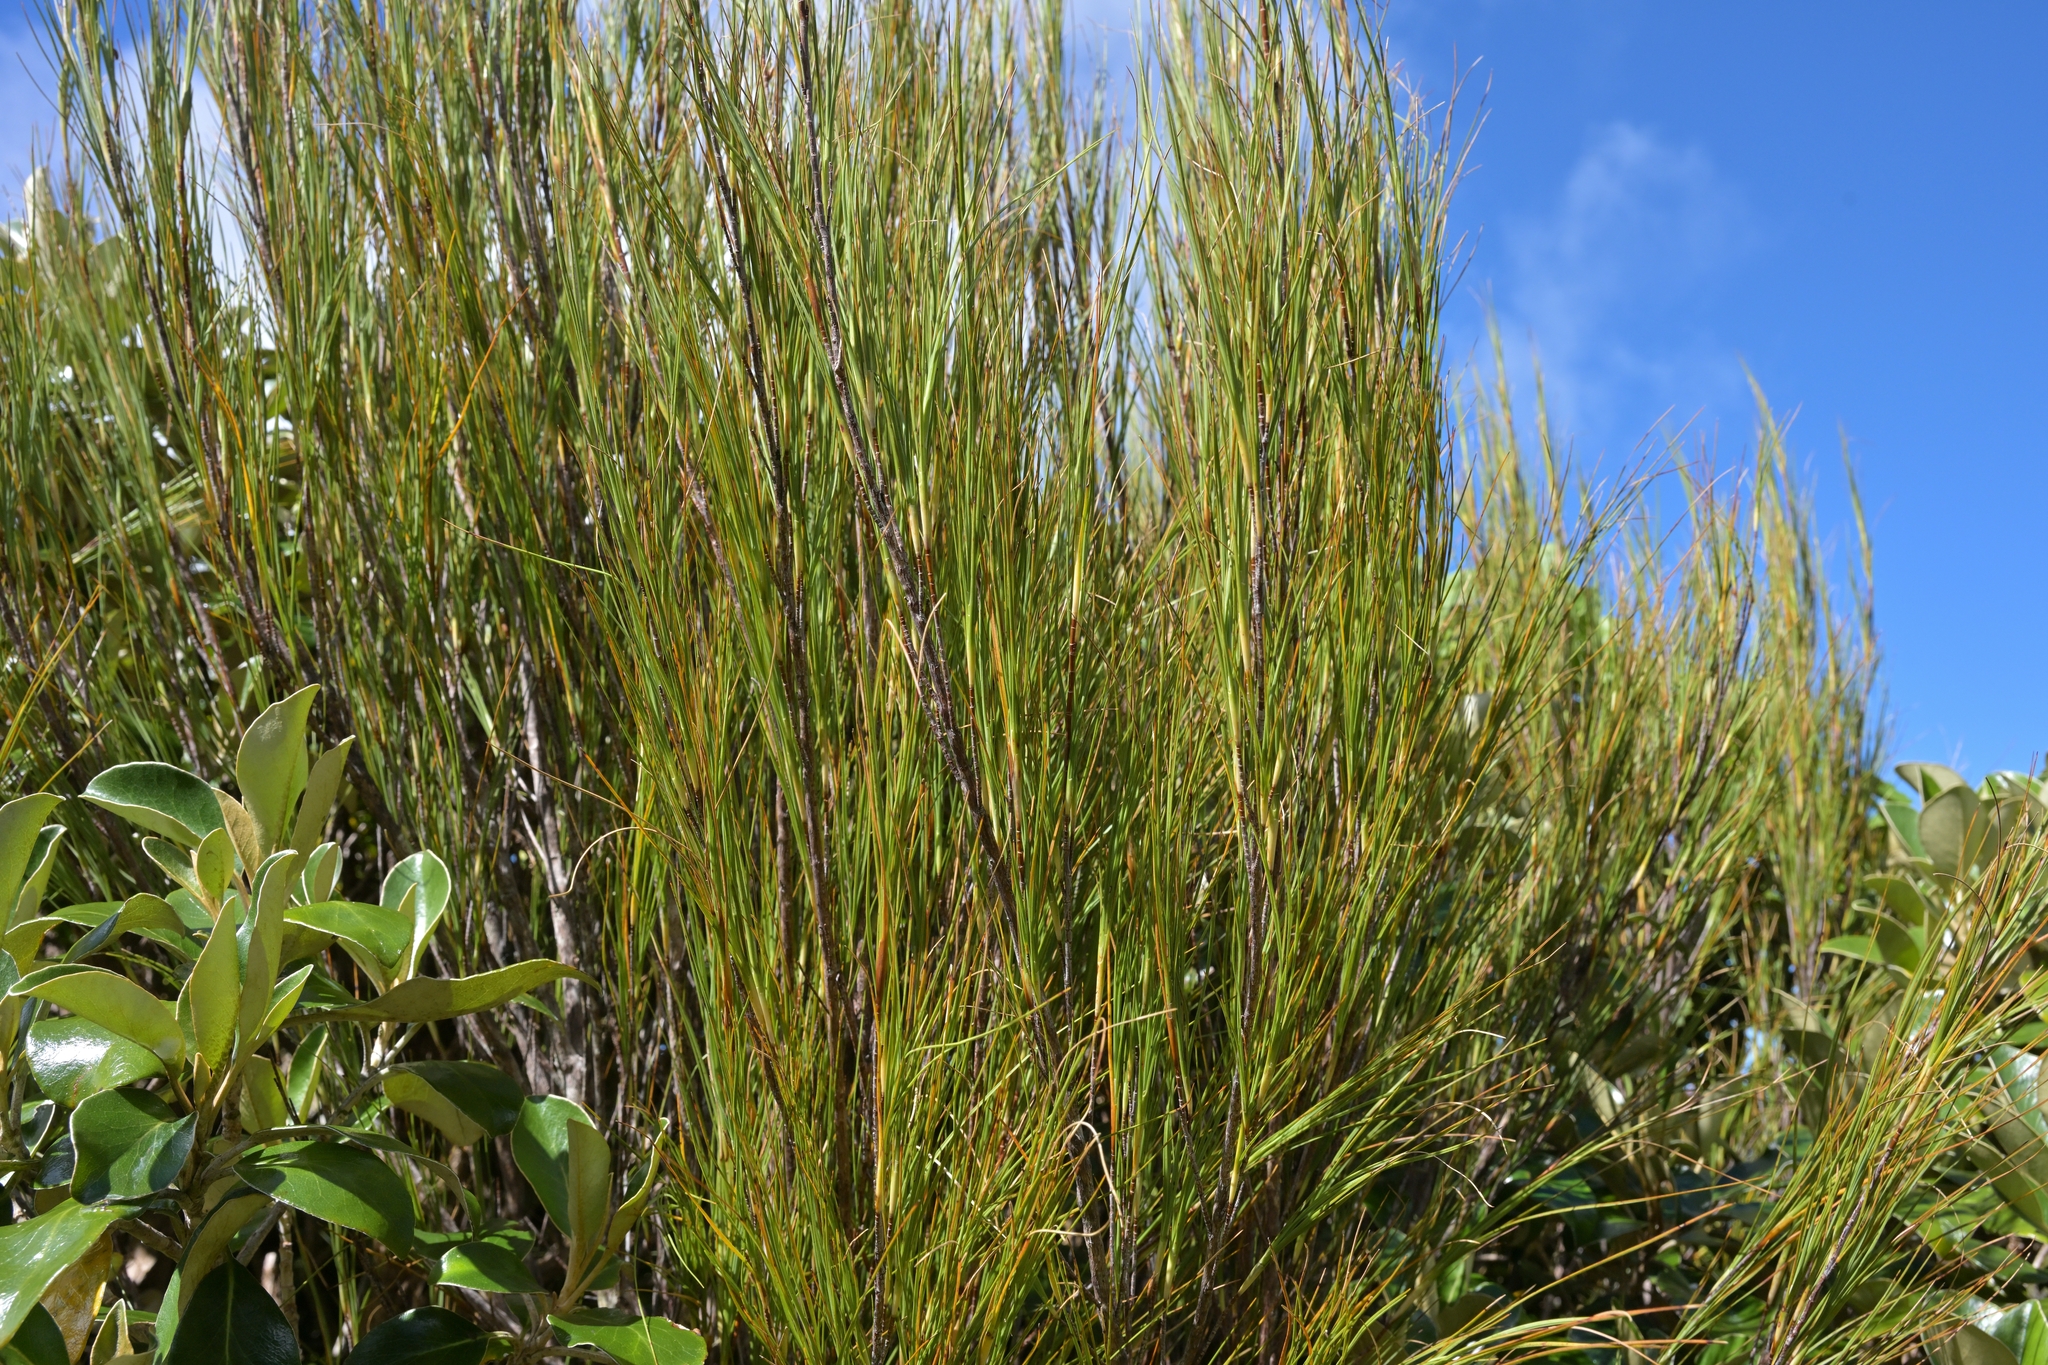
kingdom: Plantae
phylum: Tracheophyta
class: Magnoliopsida
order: Ericales
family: Ericaceae
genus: Dracophyllum
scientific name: Dracophyllum longifolium
